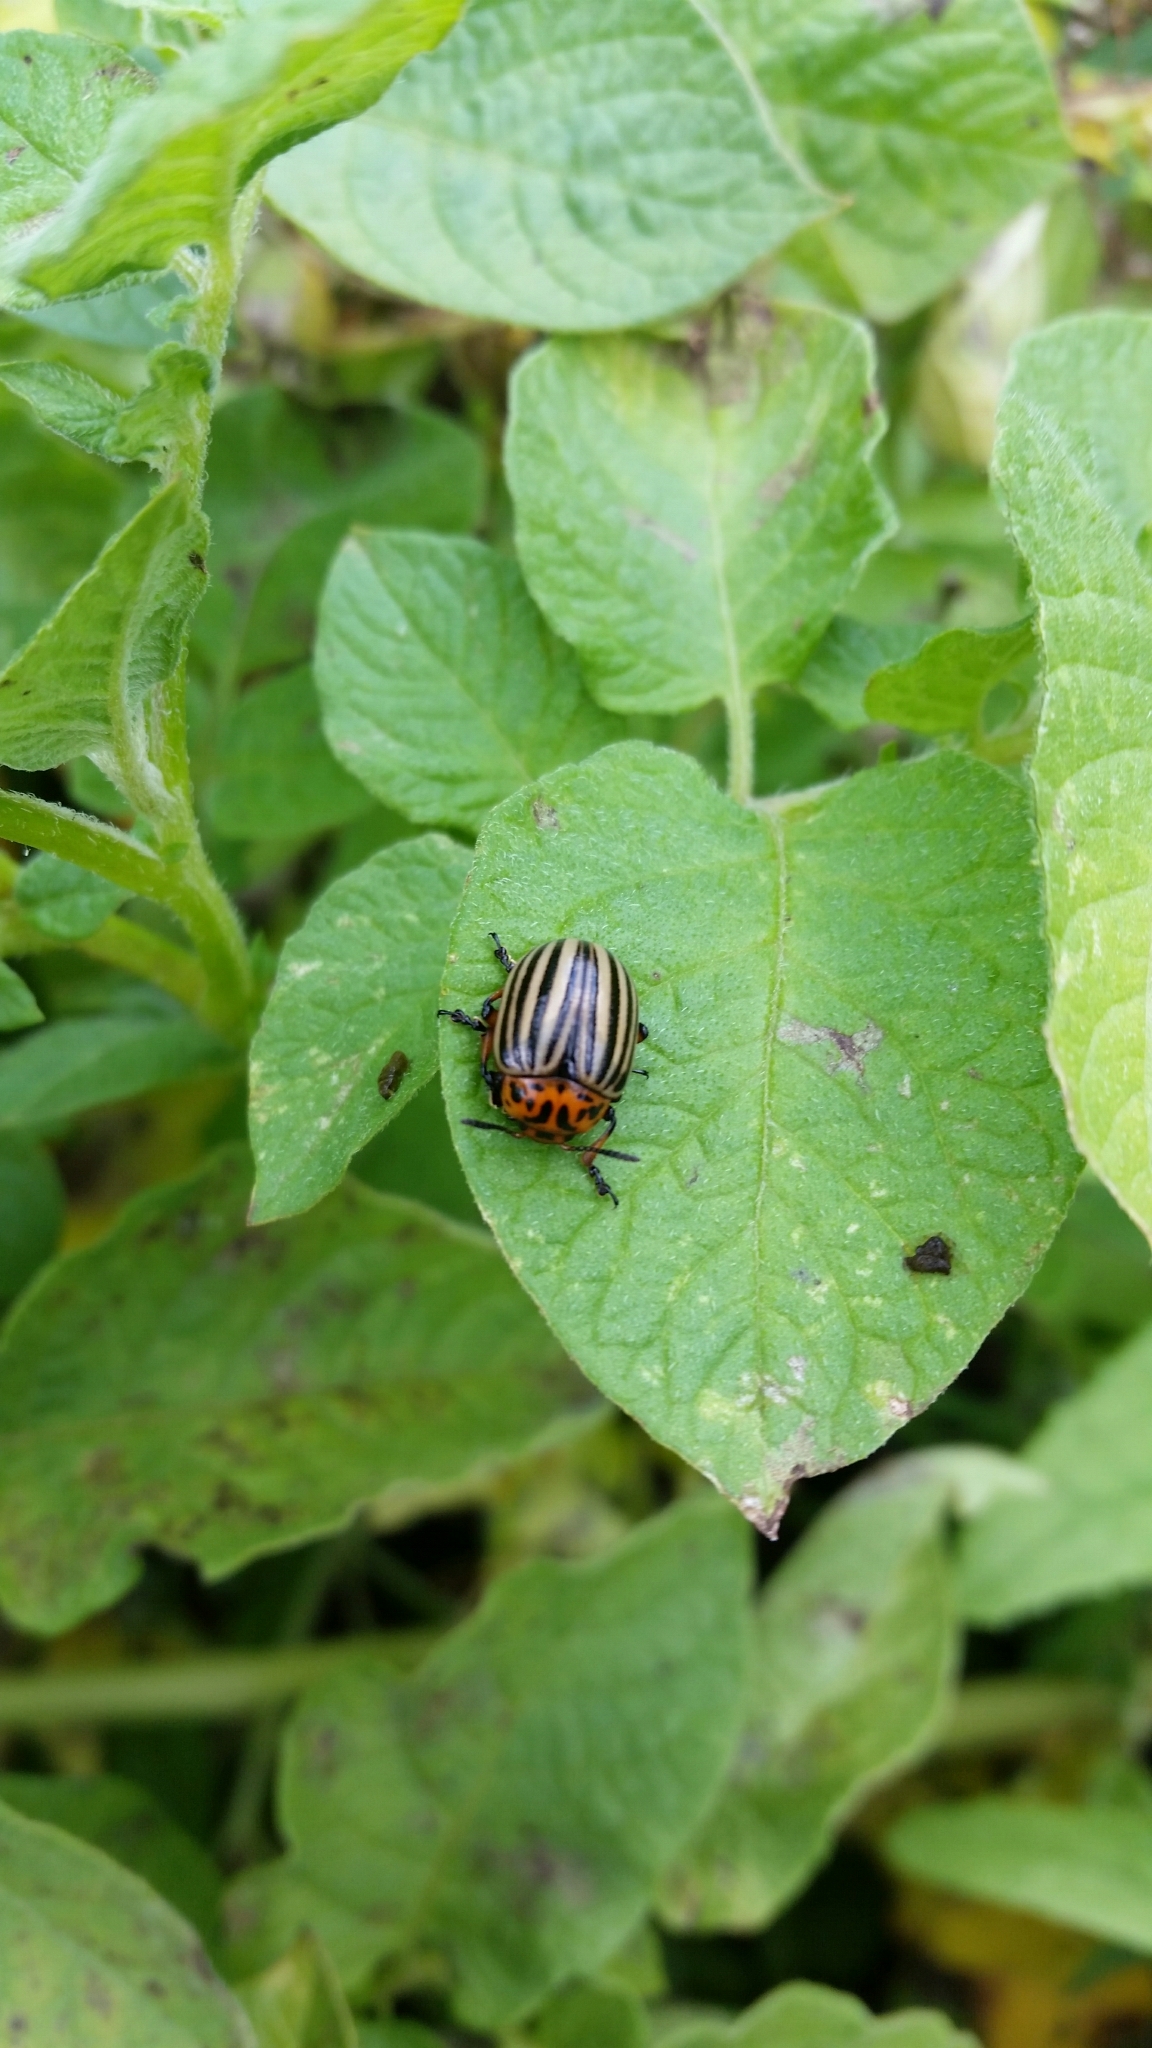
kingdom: Animalia
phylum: Arthropoda
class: Insecta
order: Coleoptera
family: Chrysomelidae
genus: Leptinotarsa
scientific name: Leptinotarsa decemlineata
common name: Colorado potato beetle
